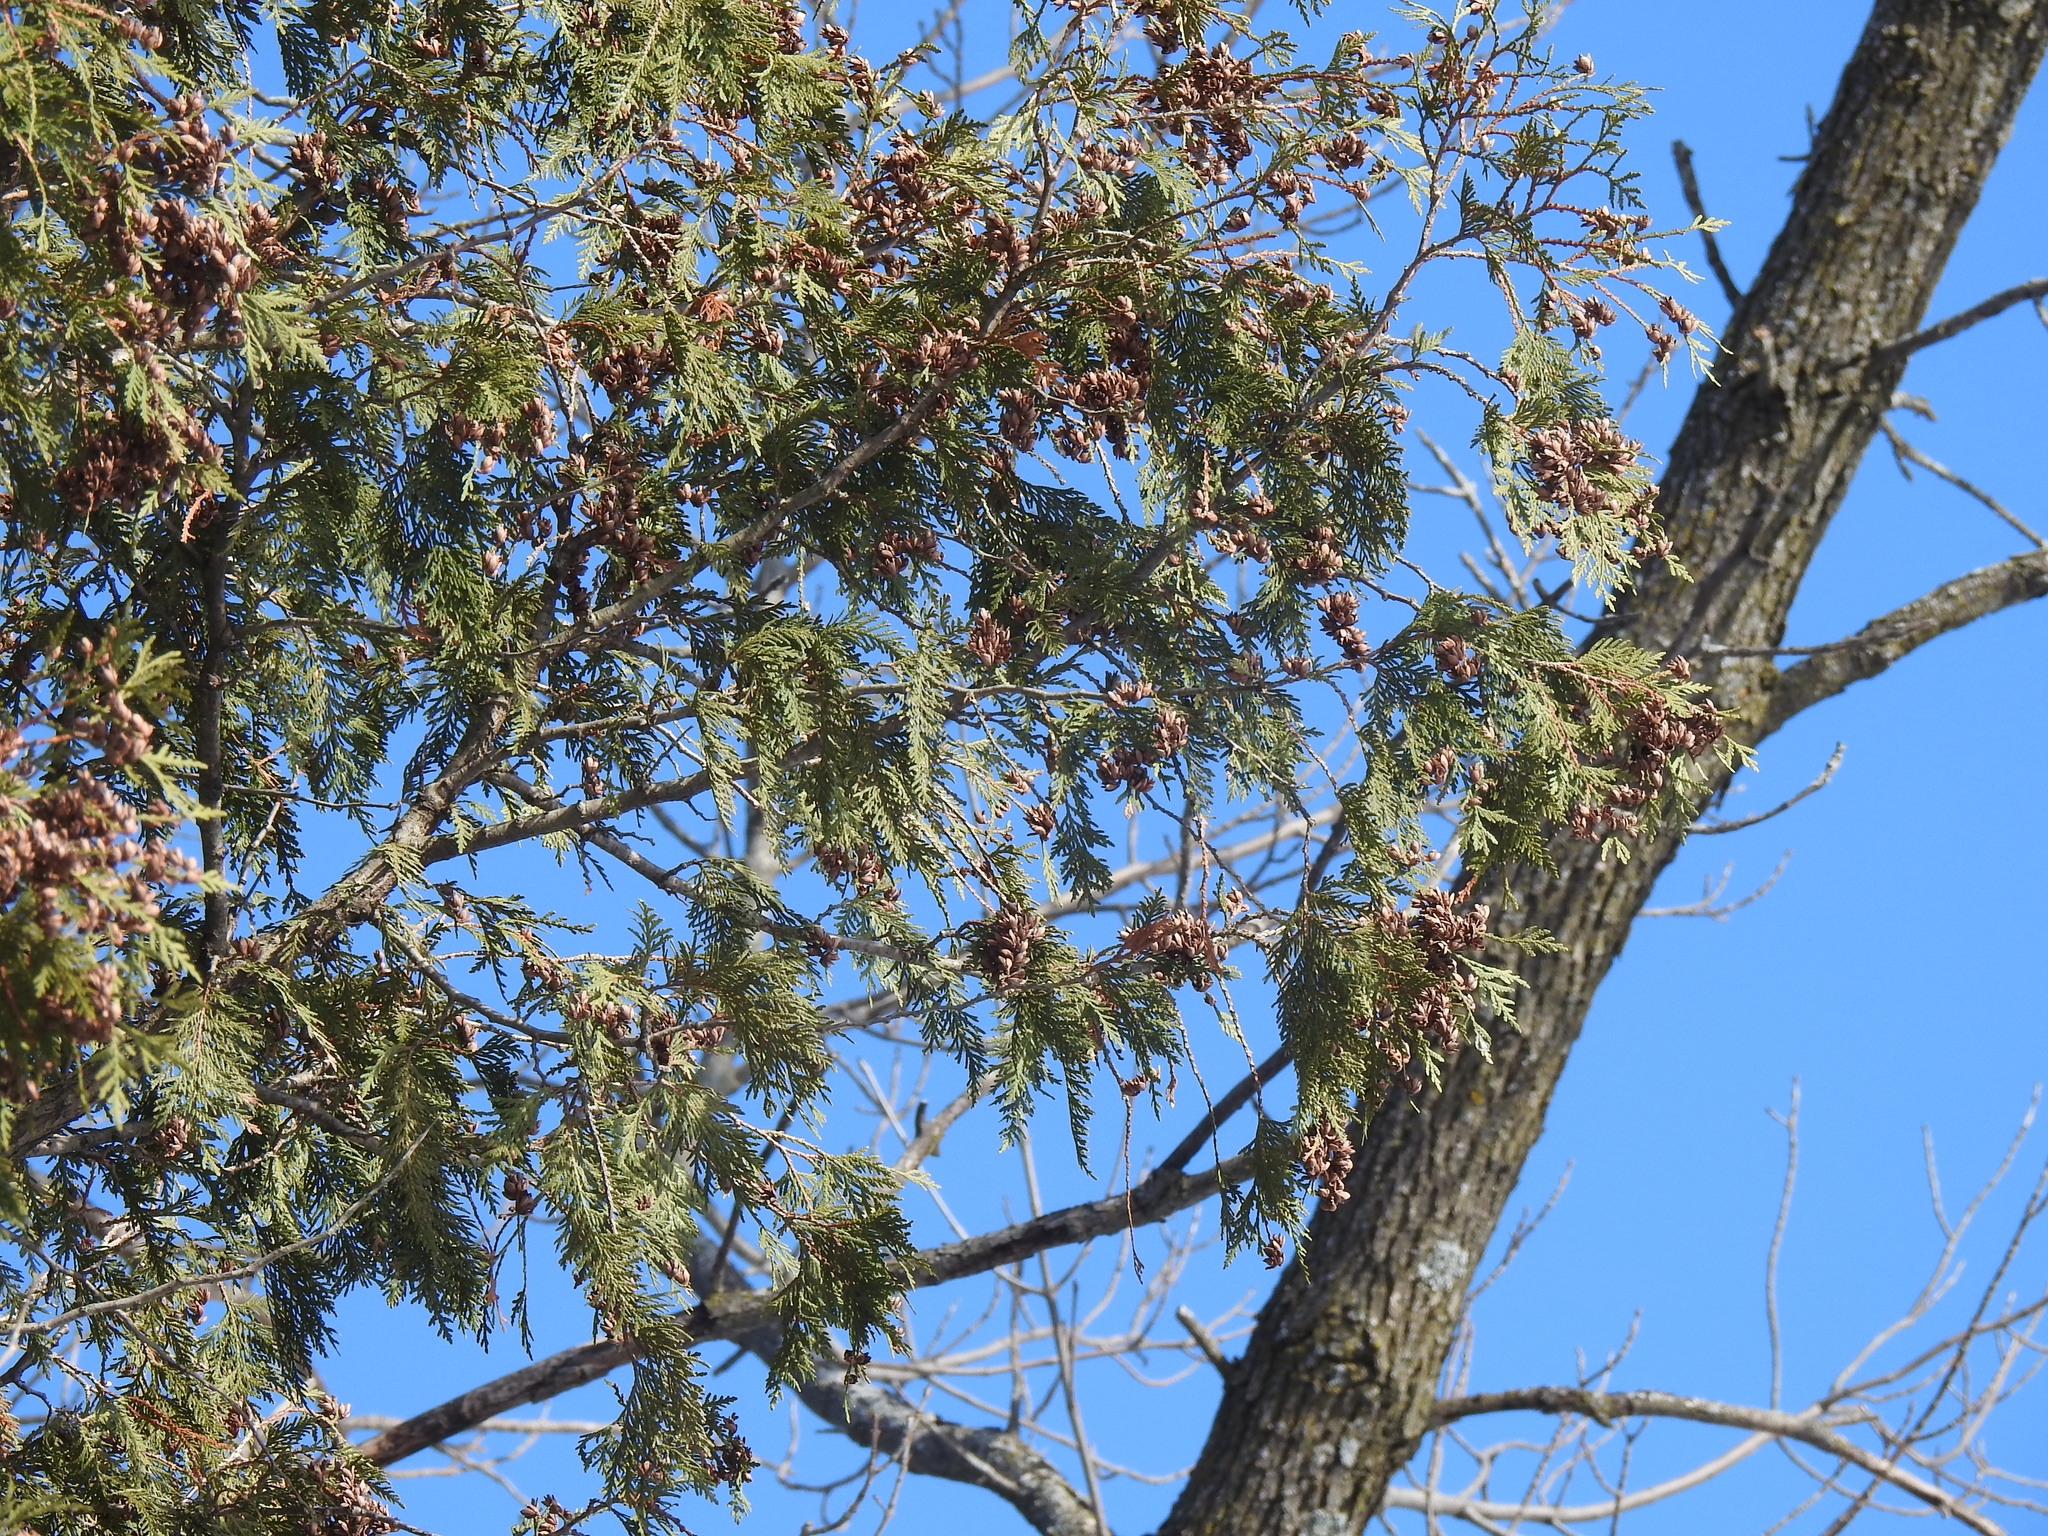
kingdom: Plantae
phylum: Tracheophyta
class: Pinopsida
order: Pinales
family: Cupressaceae
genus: Thuja
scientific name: Thuja occidentalis
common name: Northern white-cedar
